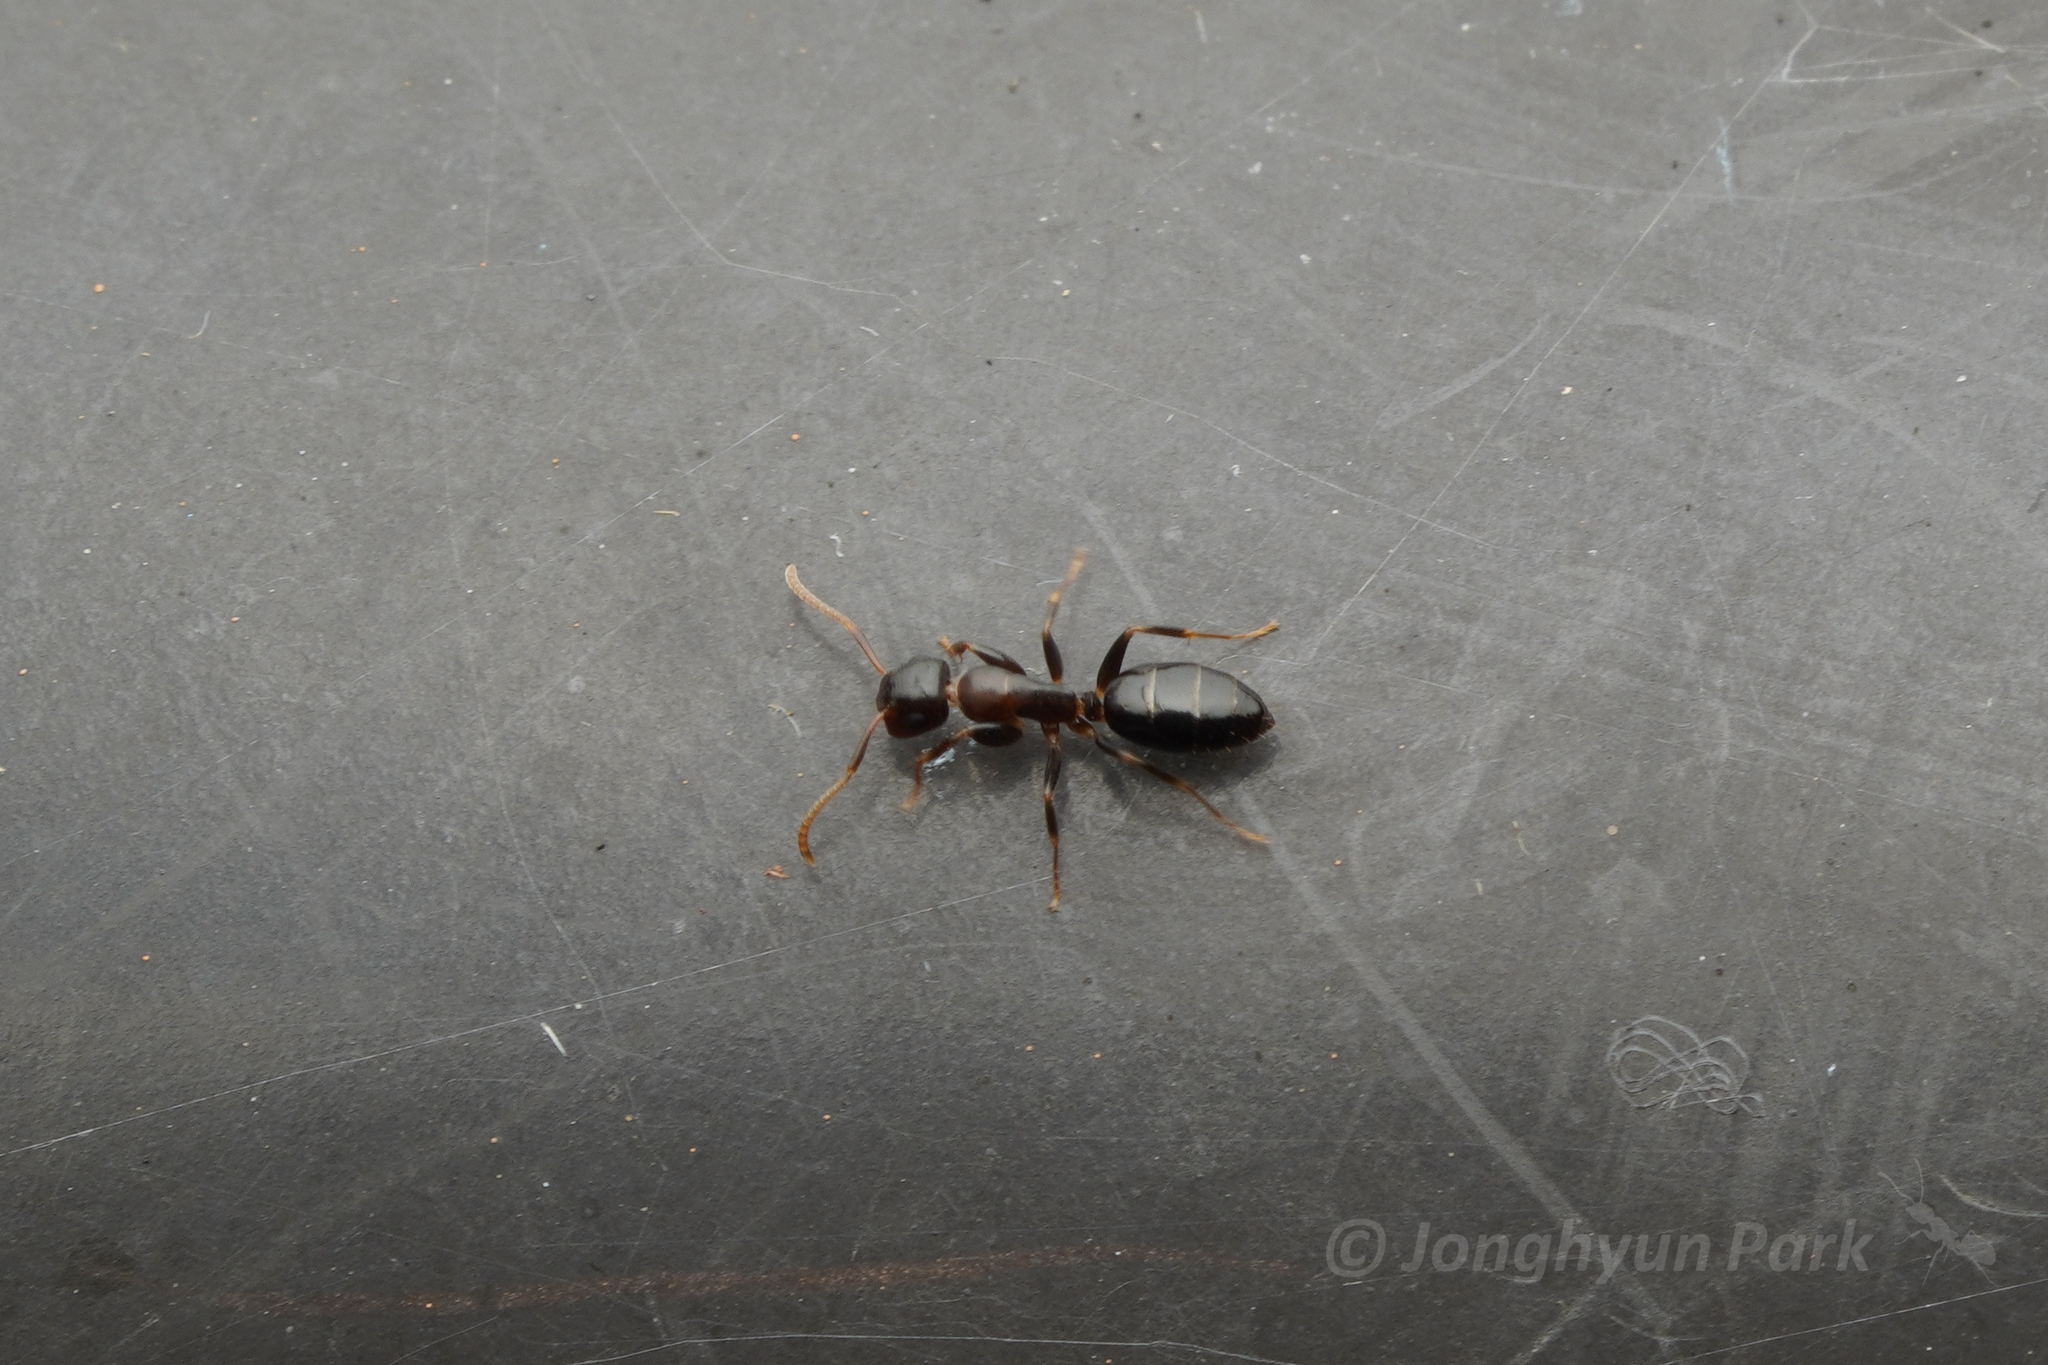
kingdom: Animalia
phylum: Arthropoda
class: Insecta
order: Hymenoptera
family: Formicidae
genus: Colobopsis
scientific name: Colobopsis
